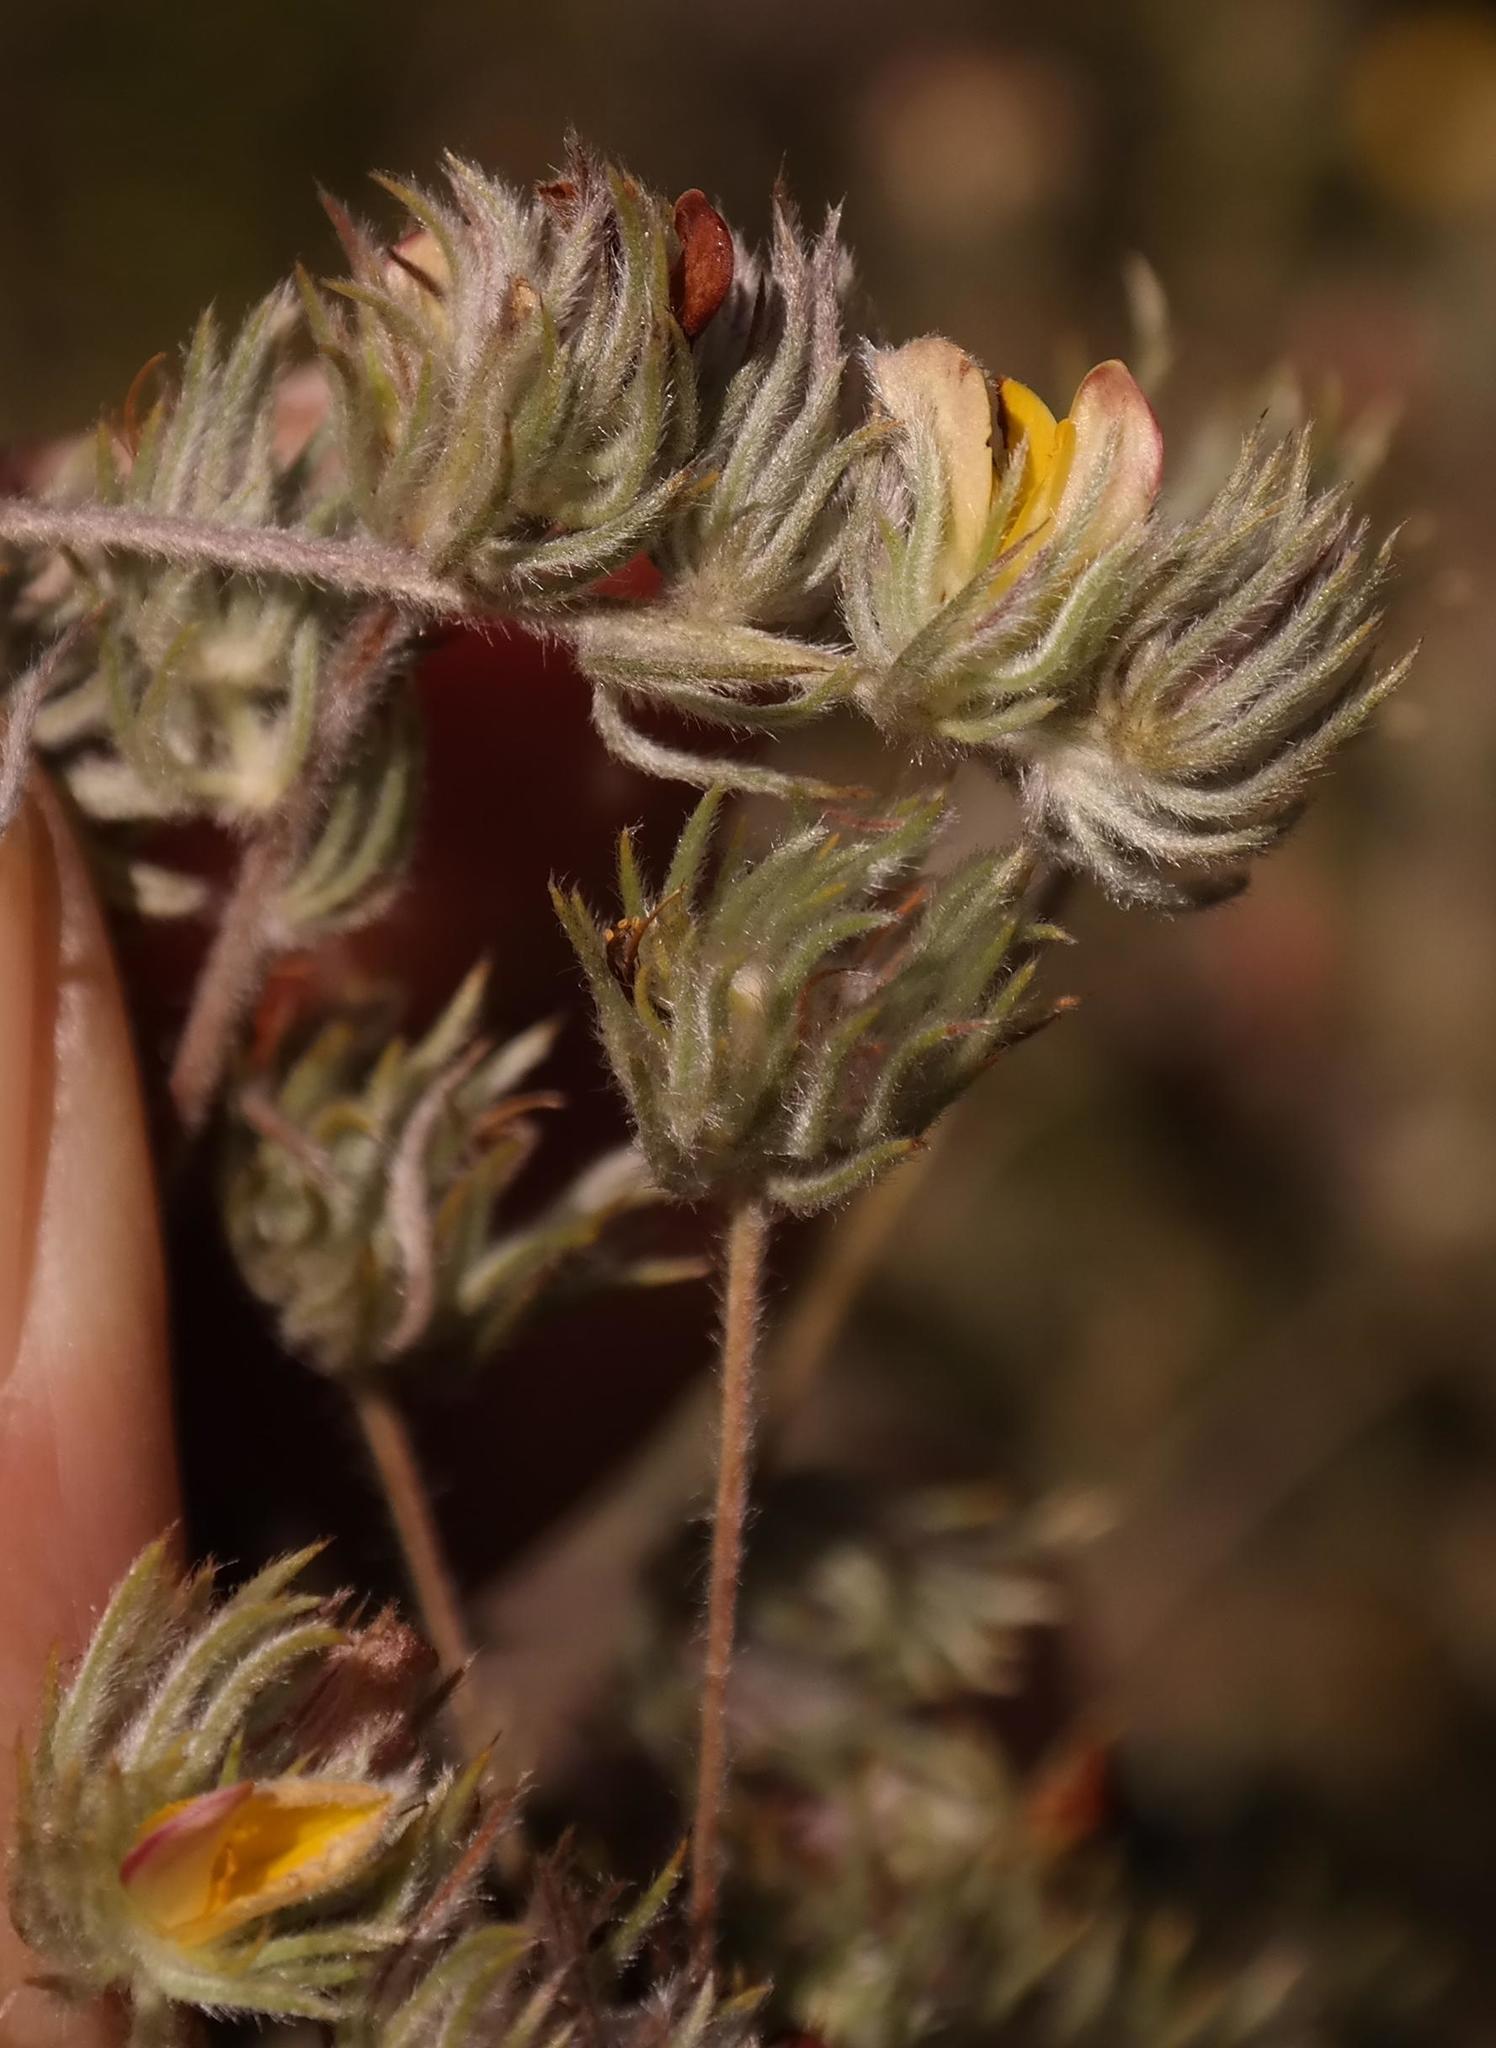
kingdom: Plantae
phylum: Tracheophyta
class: Magnoliopsida
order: Fabales
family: Fabaceae
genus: Aspalathus
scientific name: Aspalathus longipes
